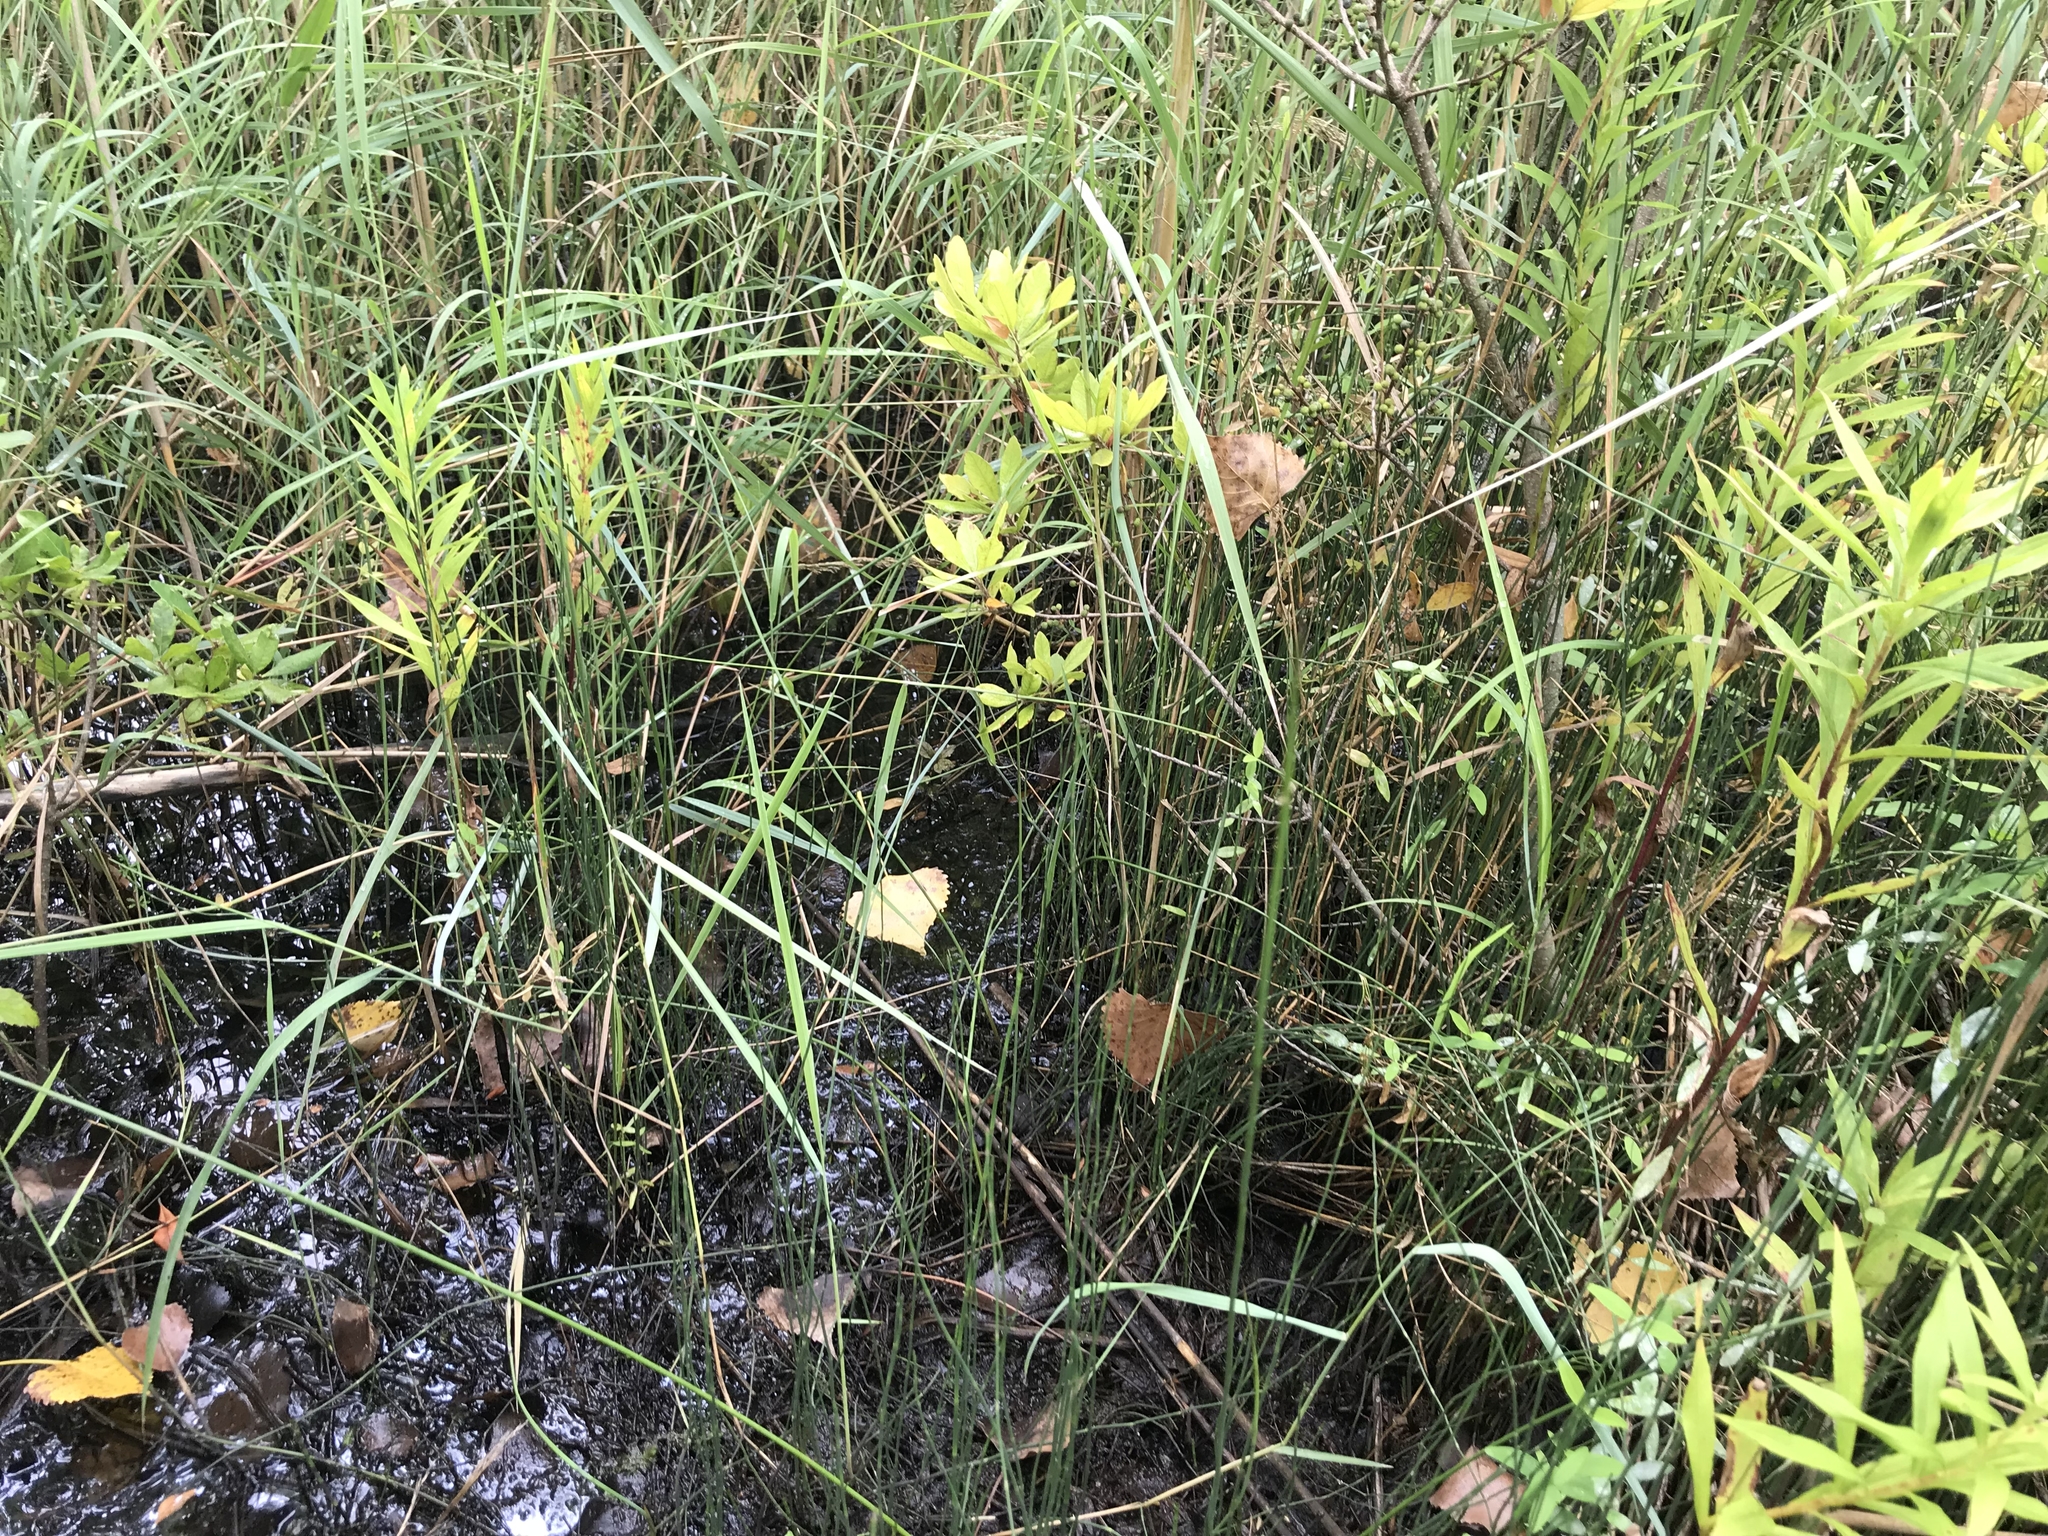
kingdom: Plantae
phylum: Tracheophyta
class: Polypodiopsida
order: Equisetales
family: Equisetaceae
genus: Equisetum
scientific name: Equisetum variegatum
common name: Variegated horsetail
